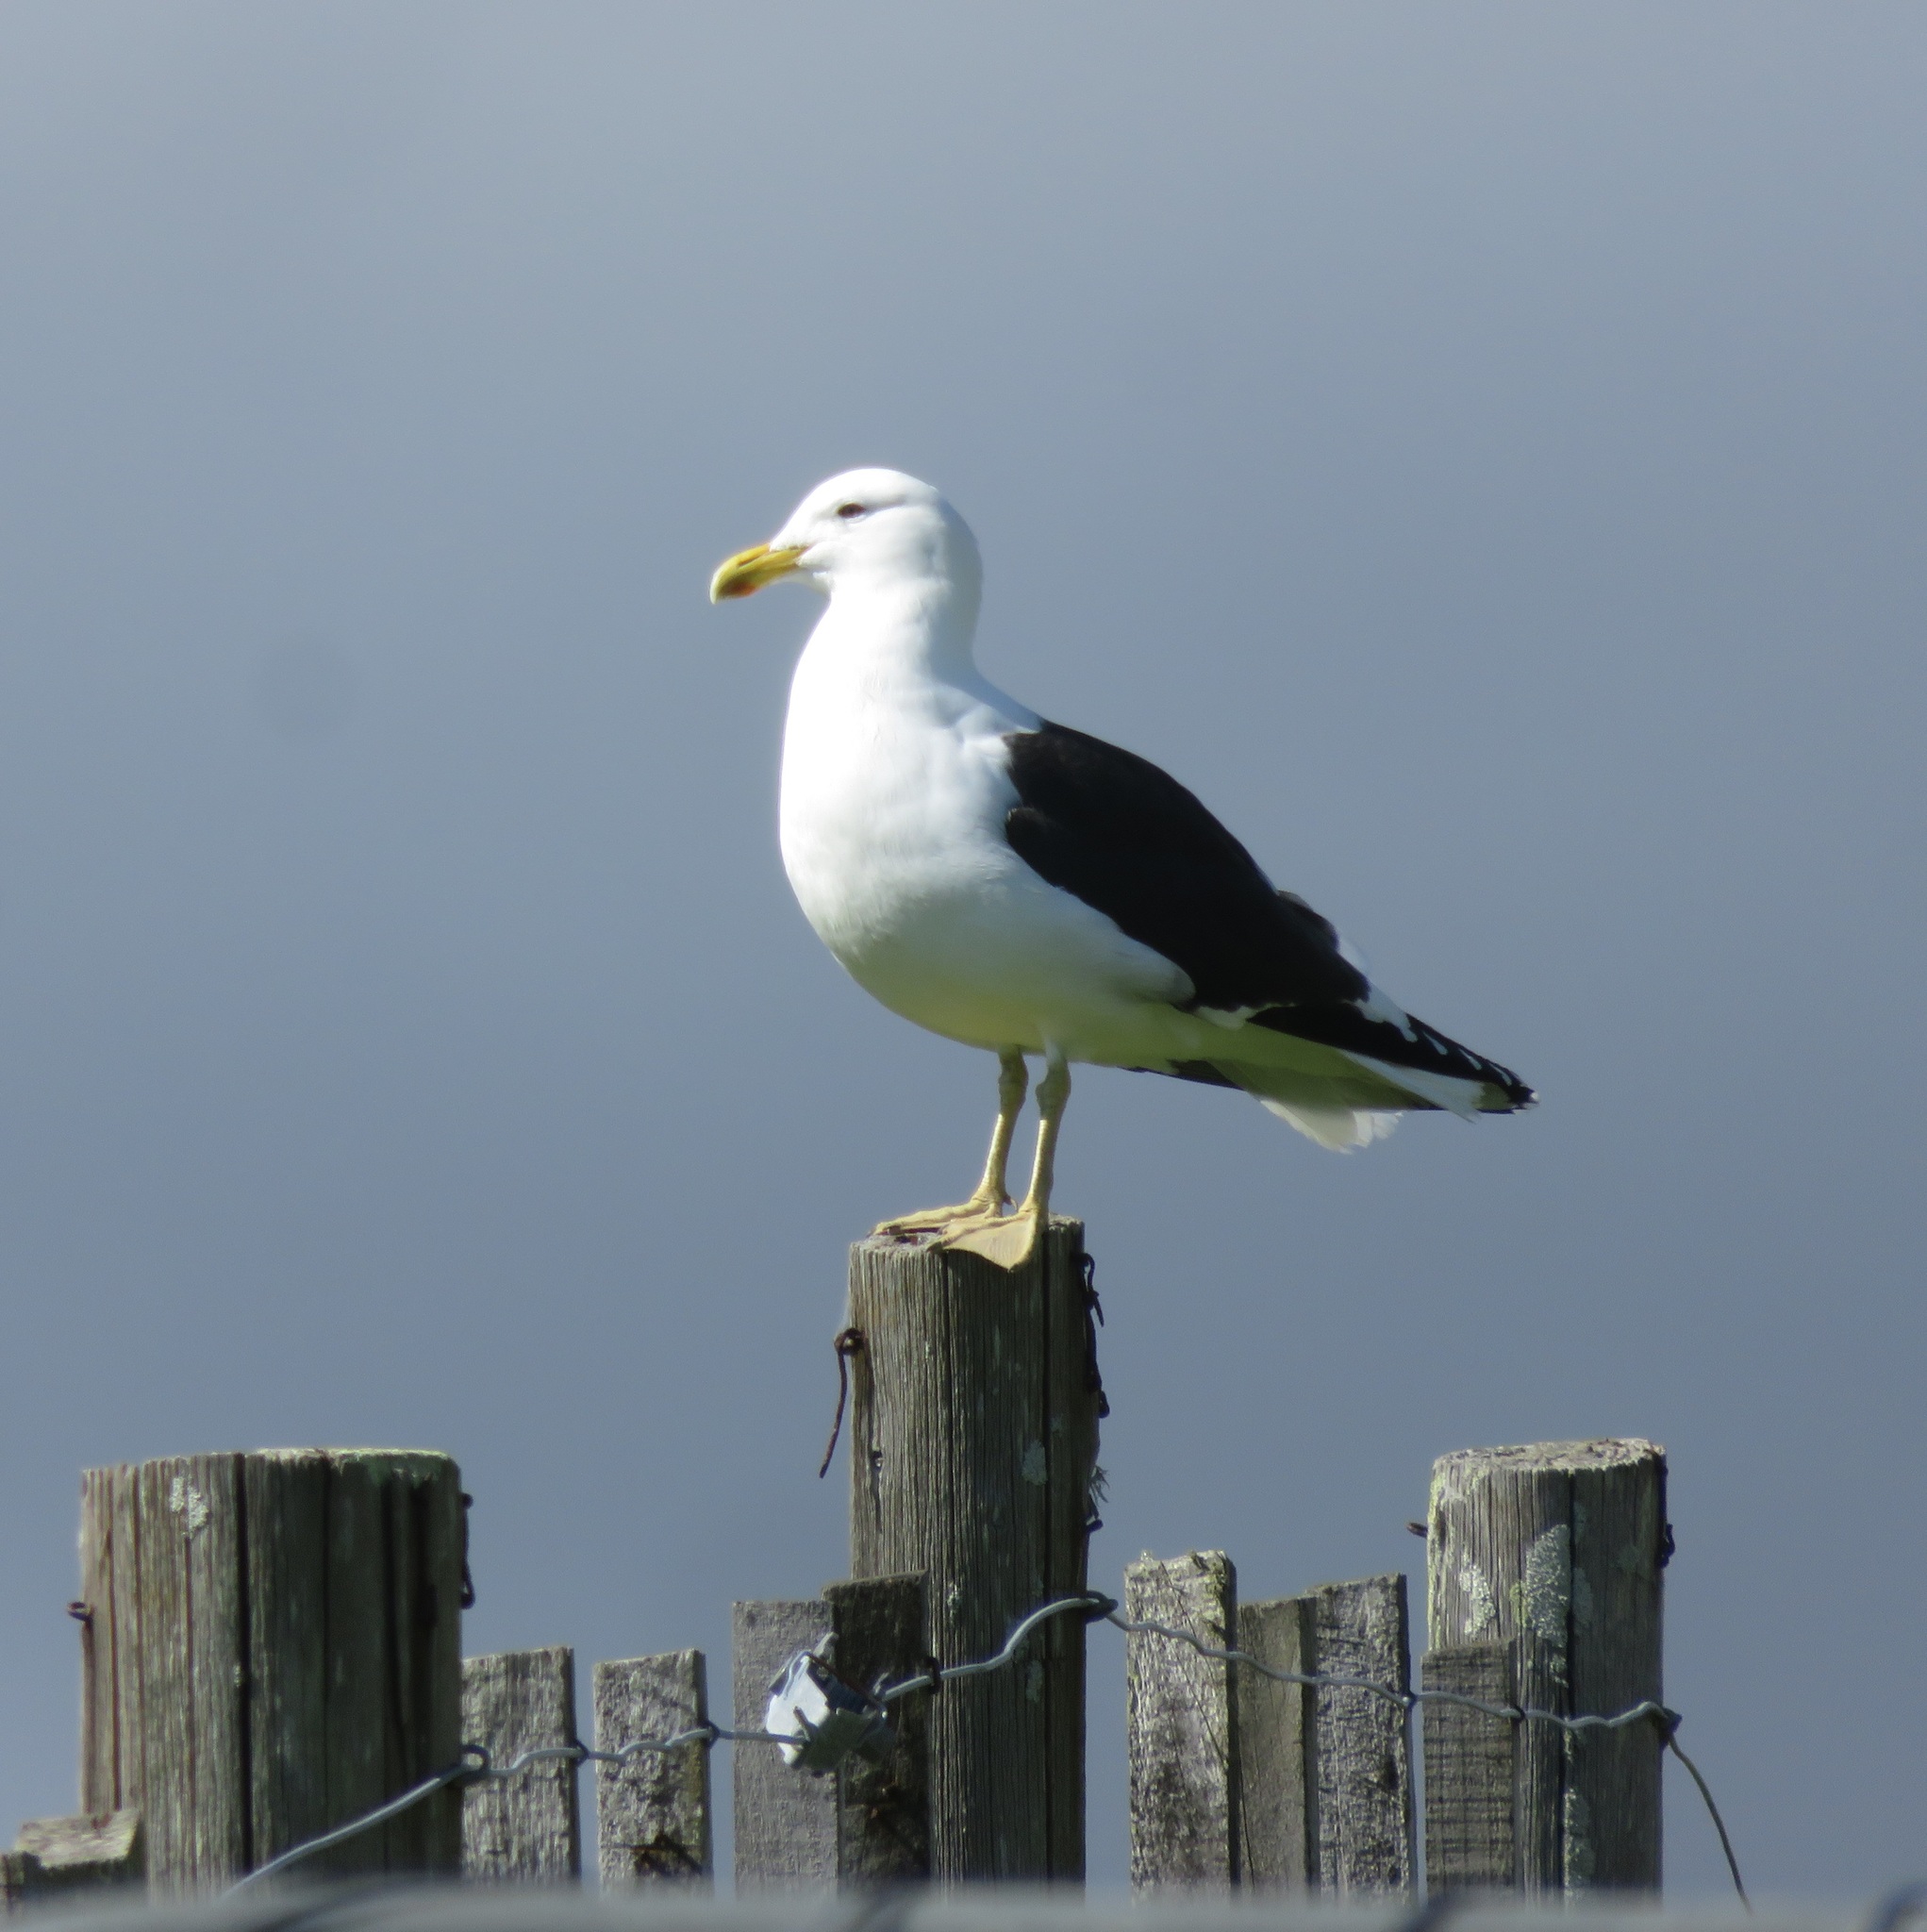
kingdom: Animalia
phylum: Chordata
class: Aves
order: Charadriiformes
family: Laridae
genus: Larus
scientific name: Larus dominicanus
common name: Kelp gull
